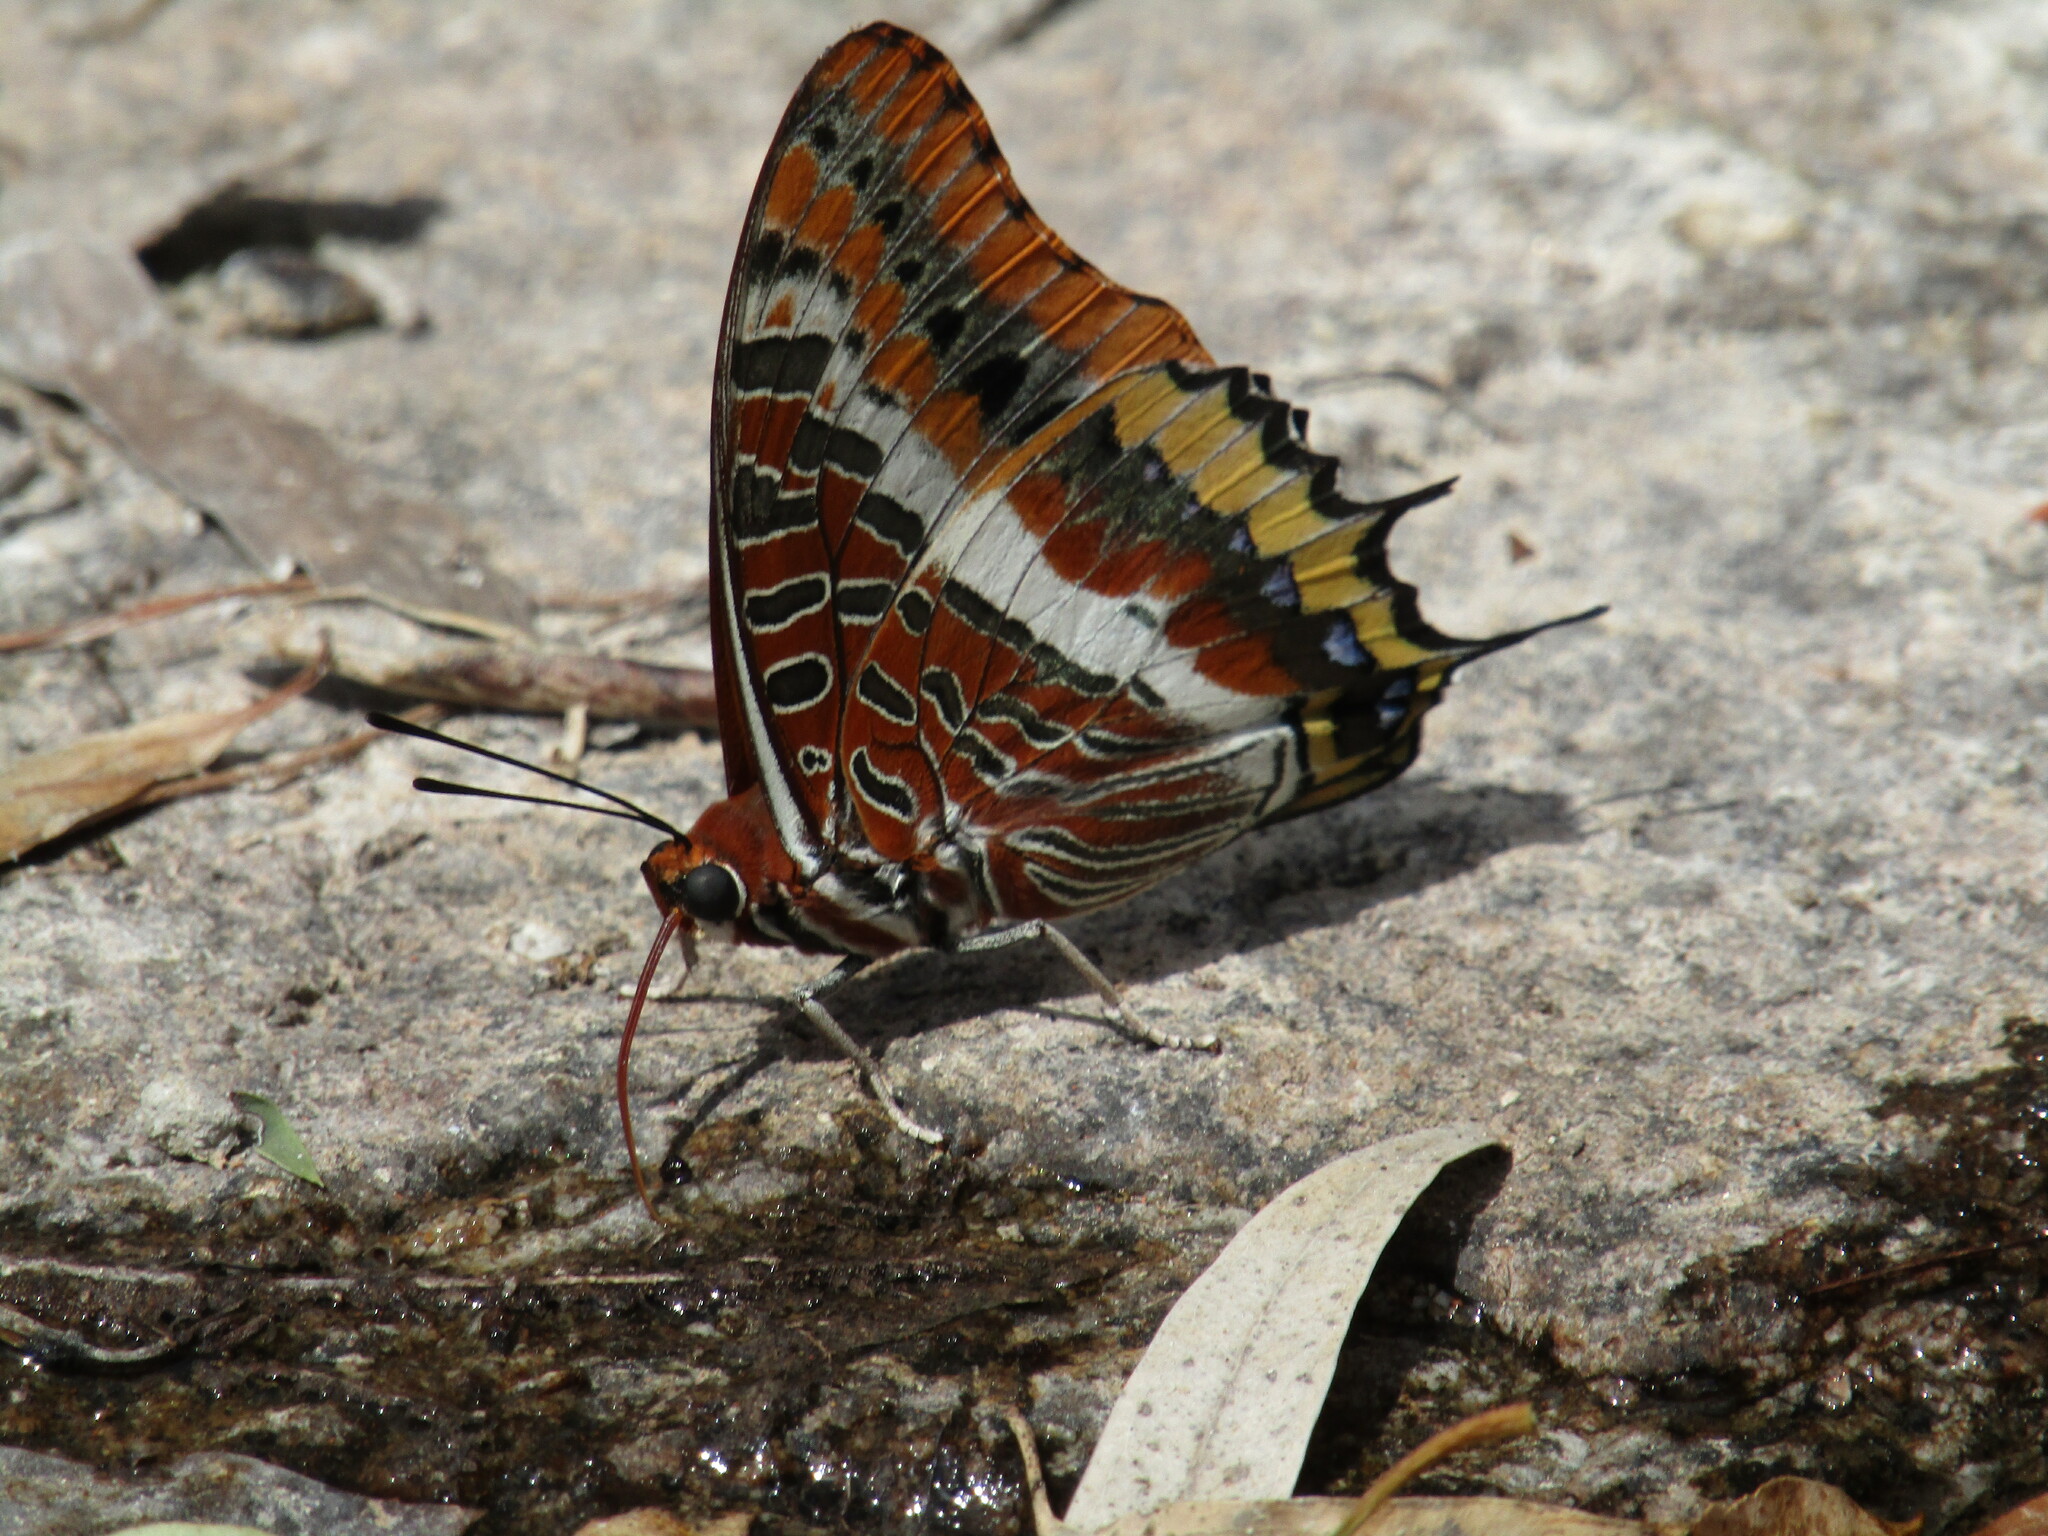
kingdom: Animalia
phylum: Arthropoda
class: Insecta
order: Lepidoptera
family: Nymphalidae
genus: Charaxes
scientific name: Charaxes jasius
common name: Two tailed pasha
